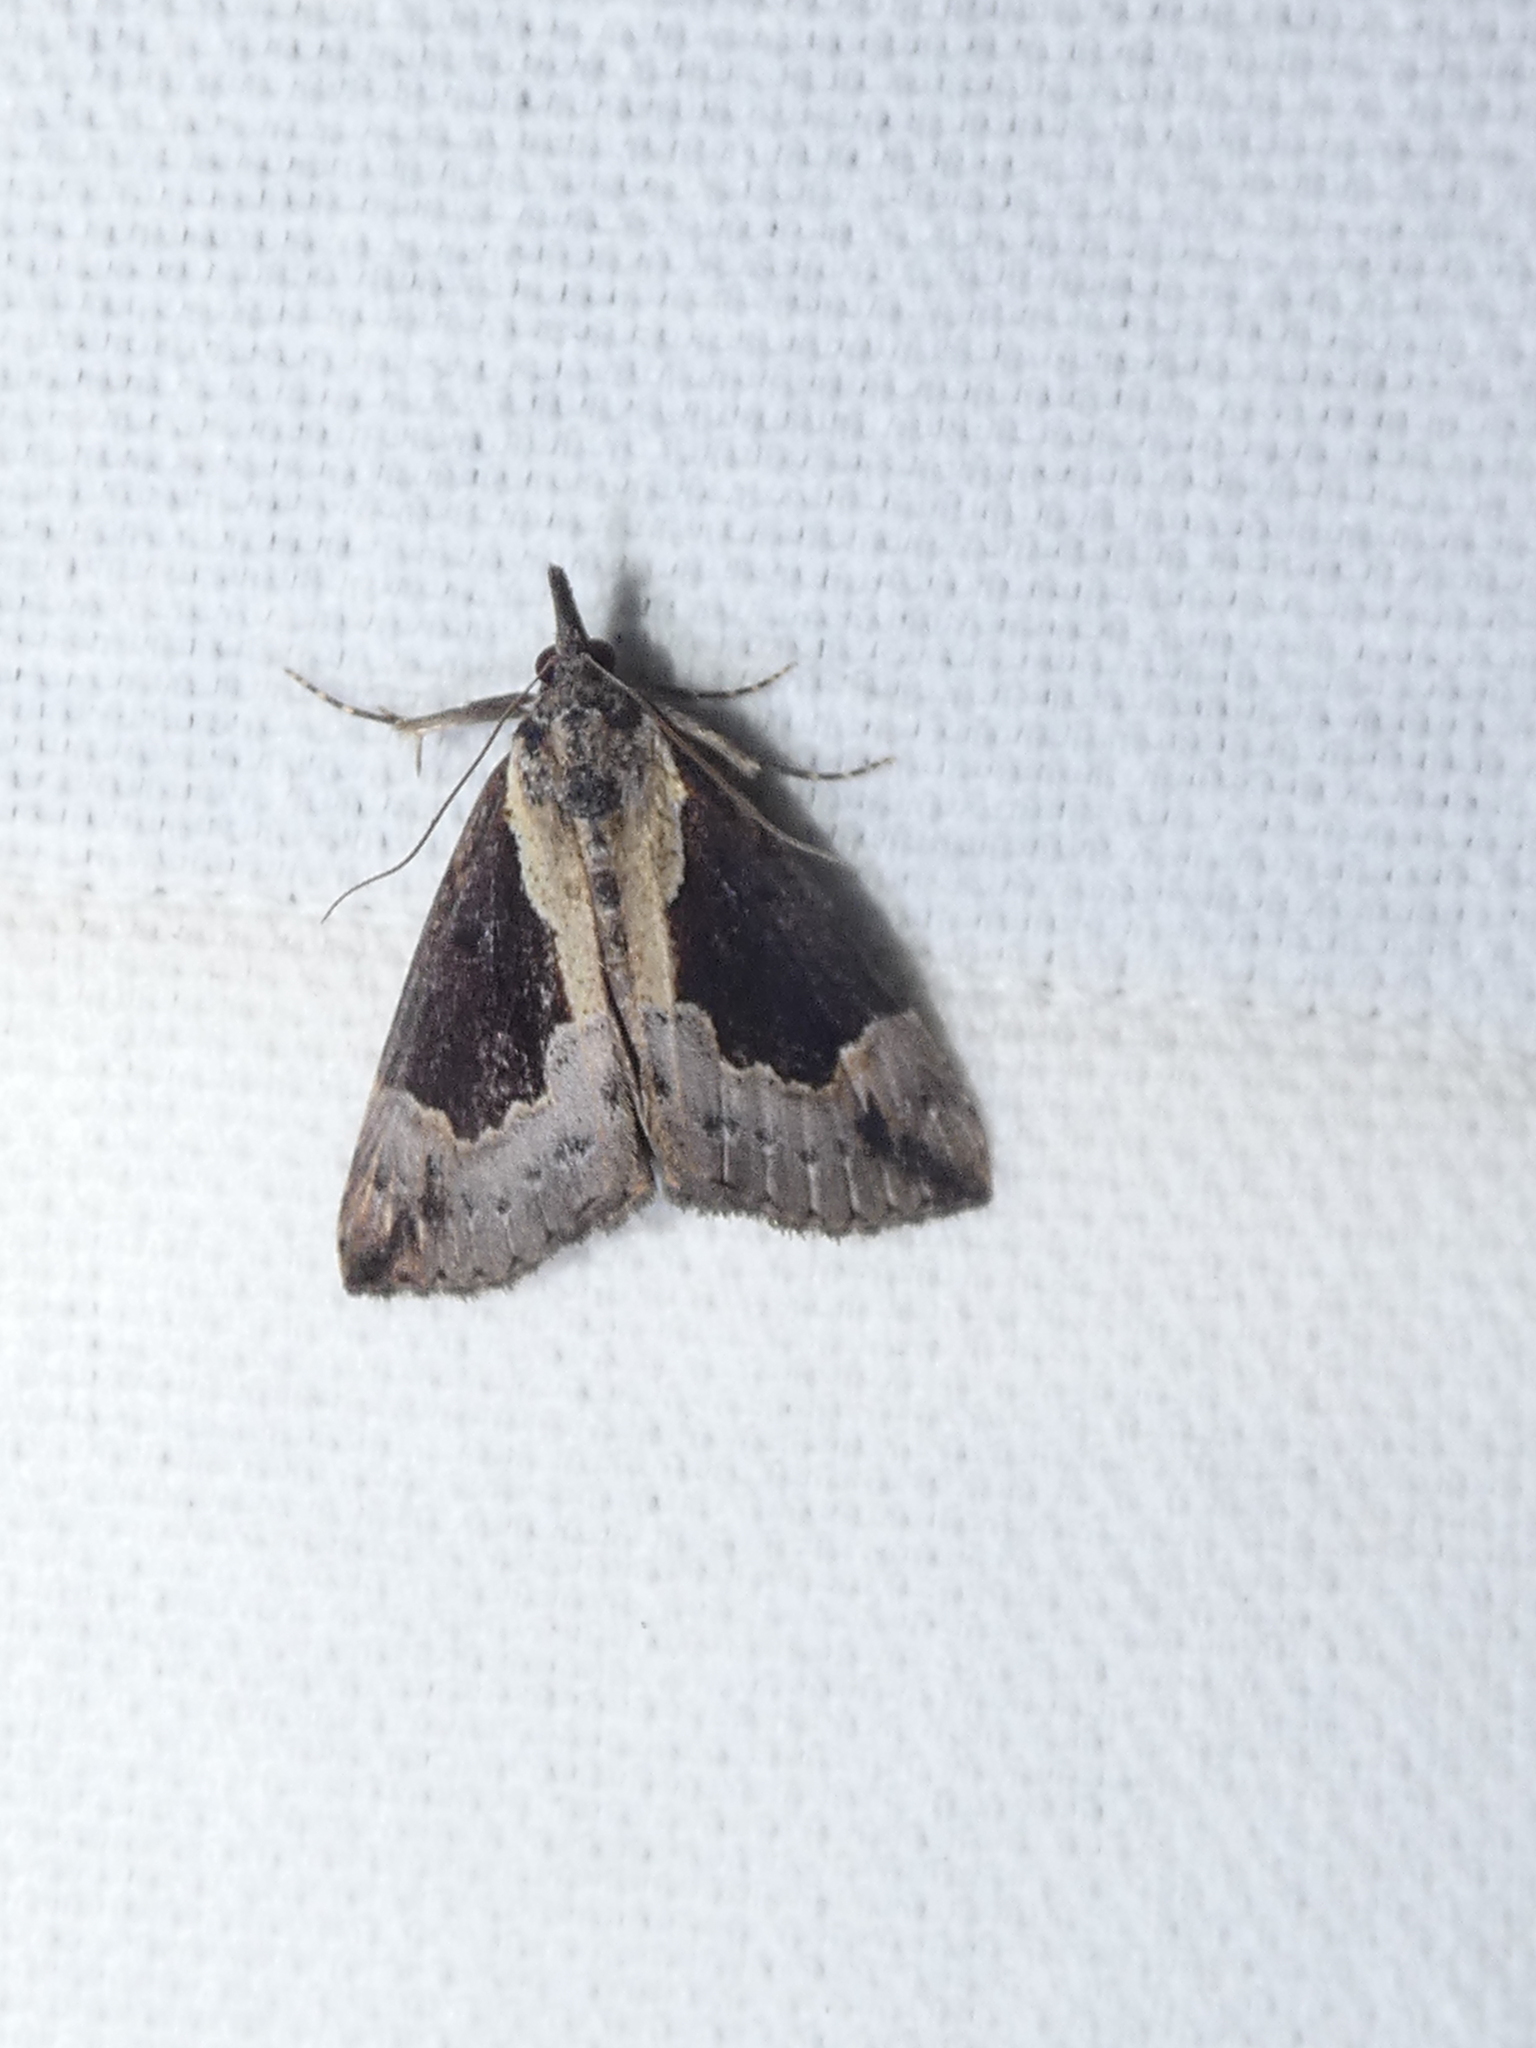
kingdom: Animalia
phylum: Arthropoda
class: Insecta
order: Lepidoptera
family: Erebidae
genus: Hypena
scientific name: Hypena baltimoralis
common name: Baltimore snout
